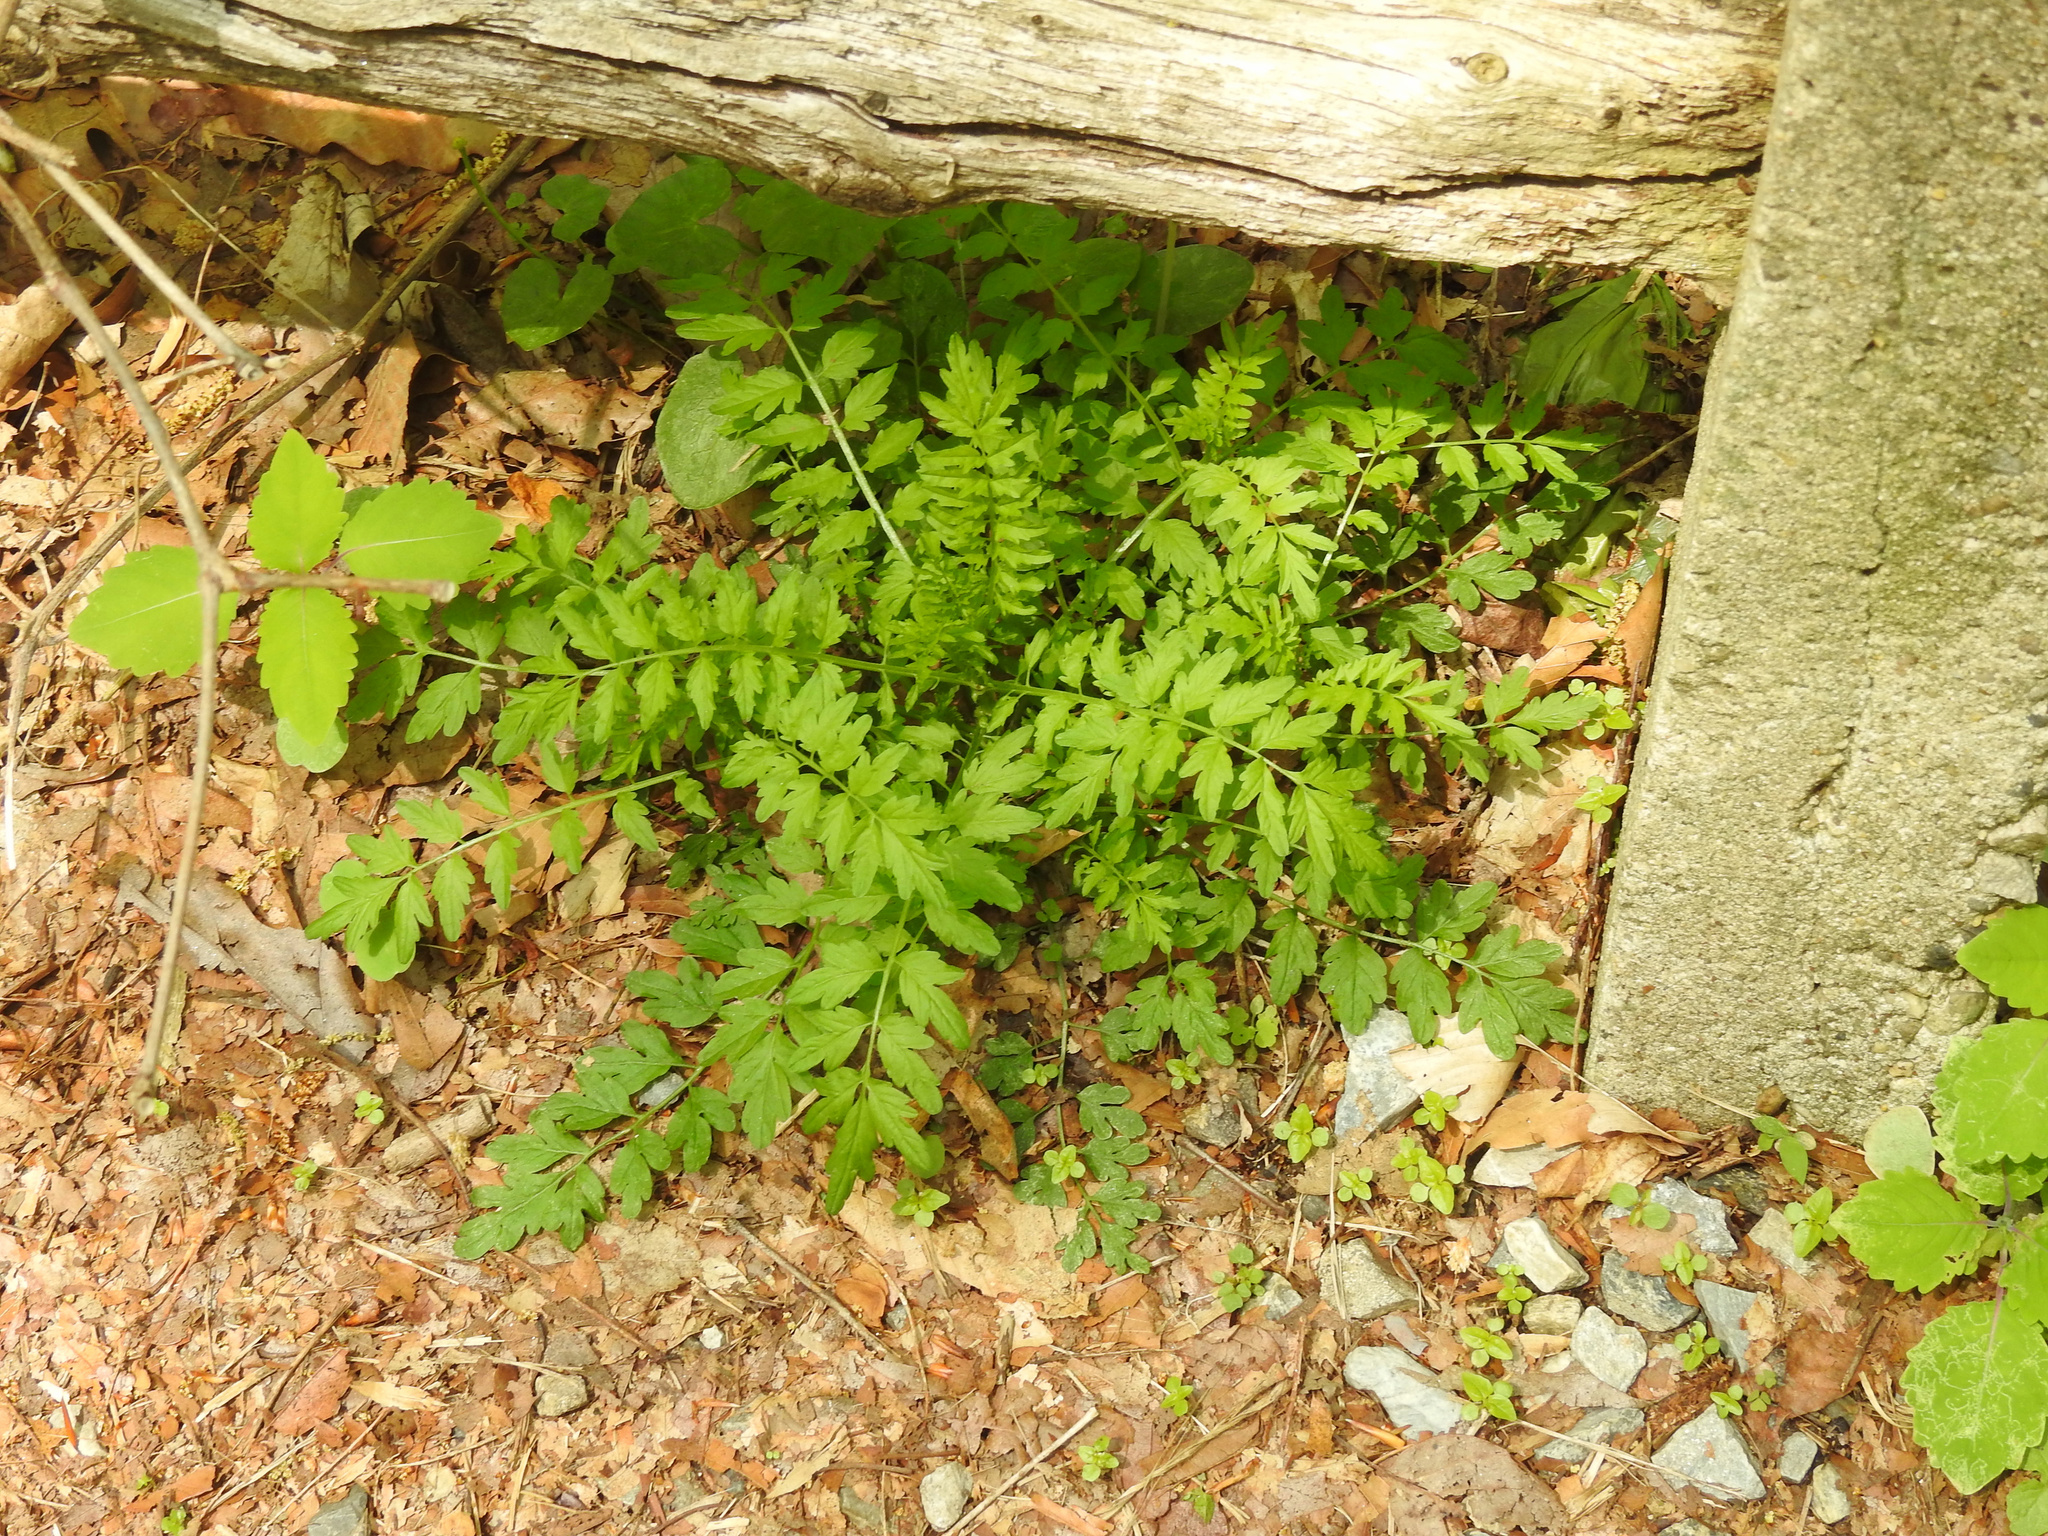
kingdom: Plantae
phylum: Tracheophyta
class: Magnoliopsida
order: Brassicales
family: Brassicaceae
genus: Cardamine
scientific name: Cardamine impatiens
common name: Narrow-leaved bitter-cress
